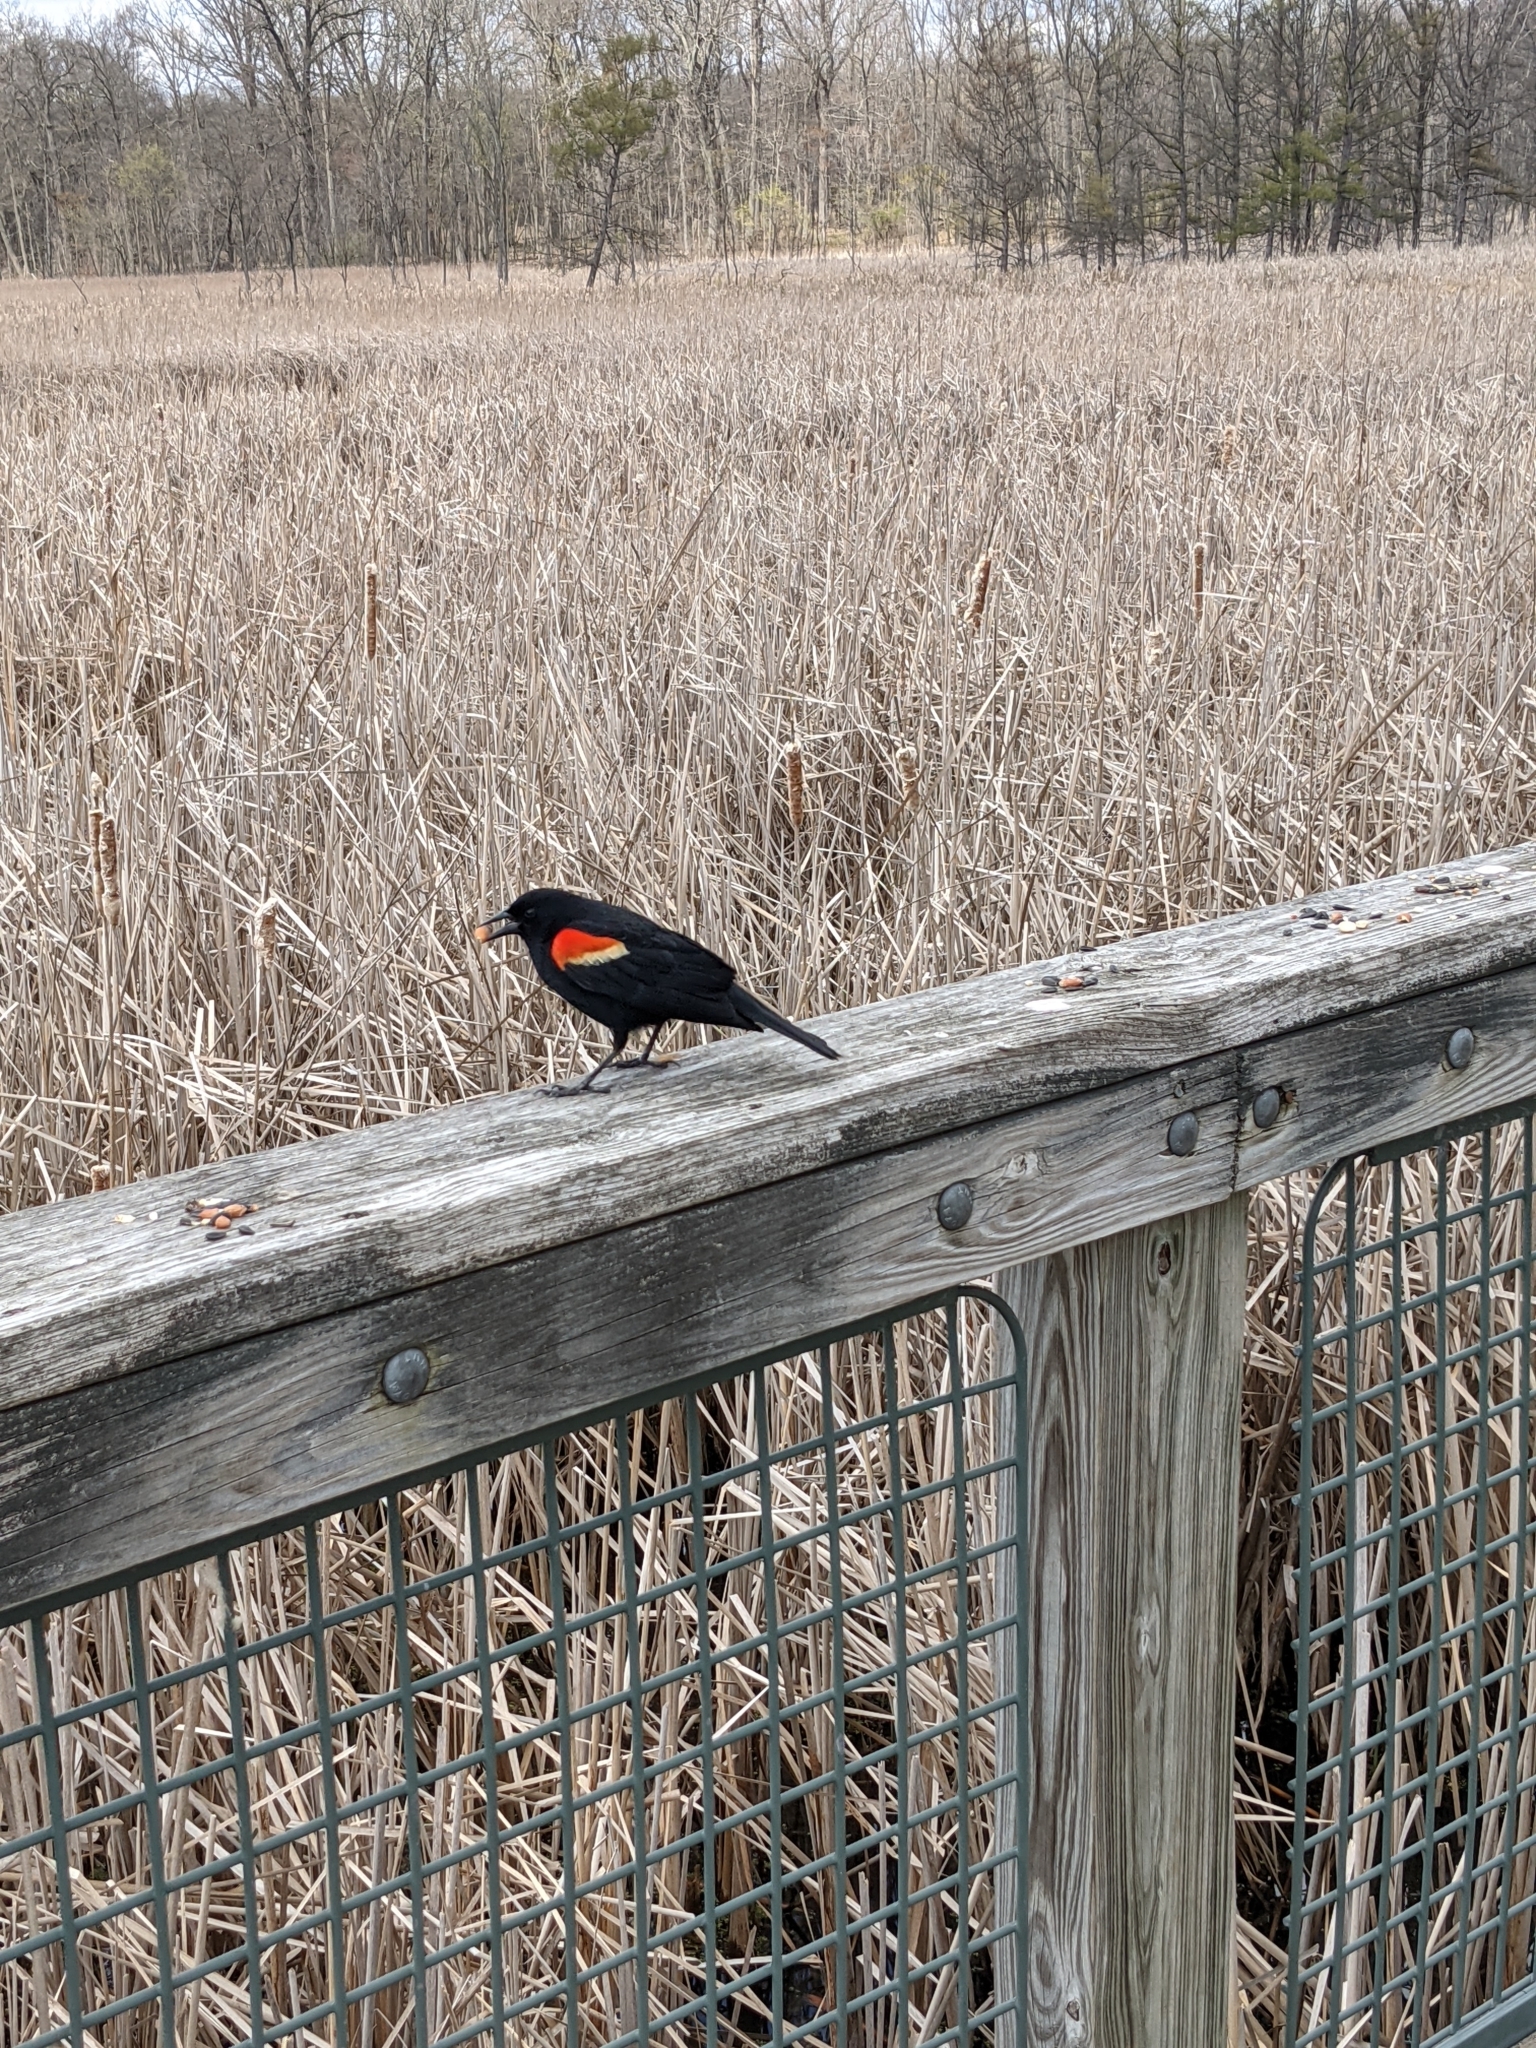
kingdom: Animalia
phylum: Chordata
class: Aves
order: Passeriformes
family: Icteridae
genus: Agelaius
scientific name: Agelaius phoeniceus
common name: Red-winged blackbird
